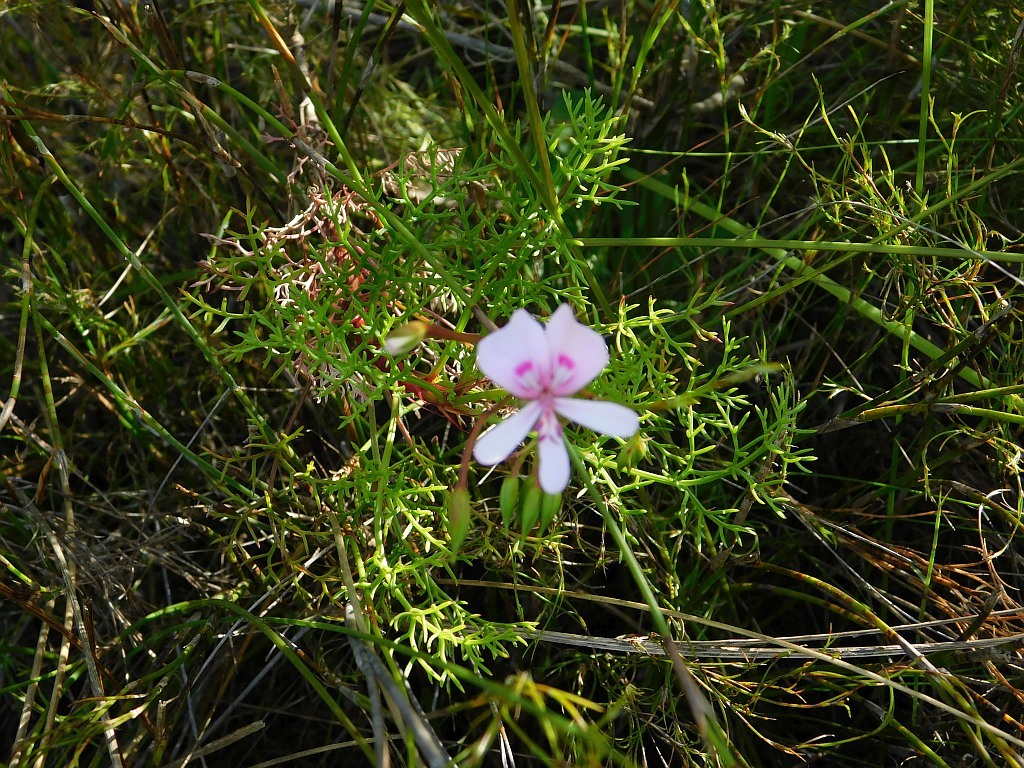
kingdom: Plantae
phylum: Tracheophyta
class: Magnoliopsida
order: Geraniales
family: Geraniaceae
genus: Pelargonium
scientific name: Pelargonium artemisiifolium
